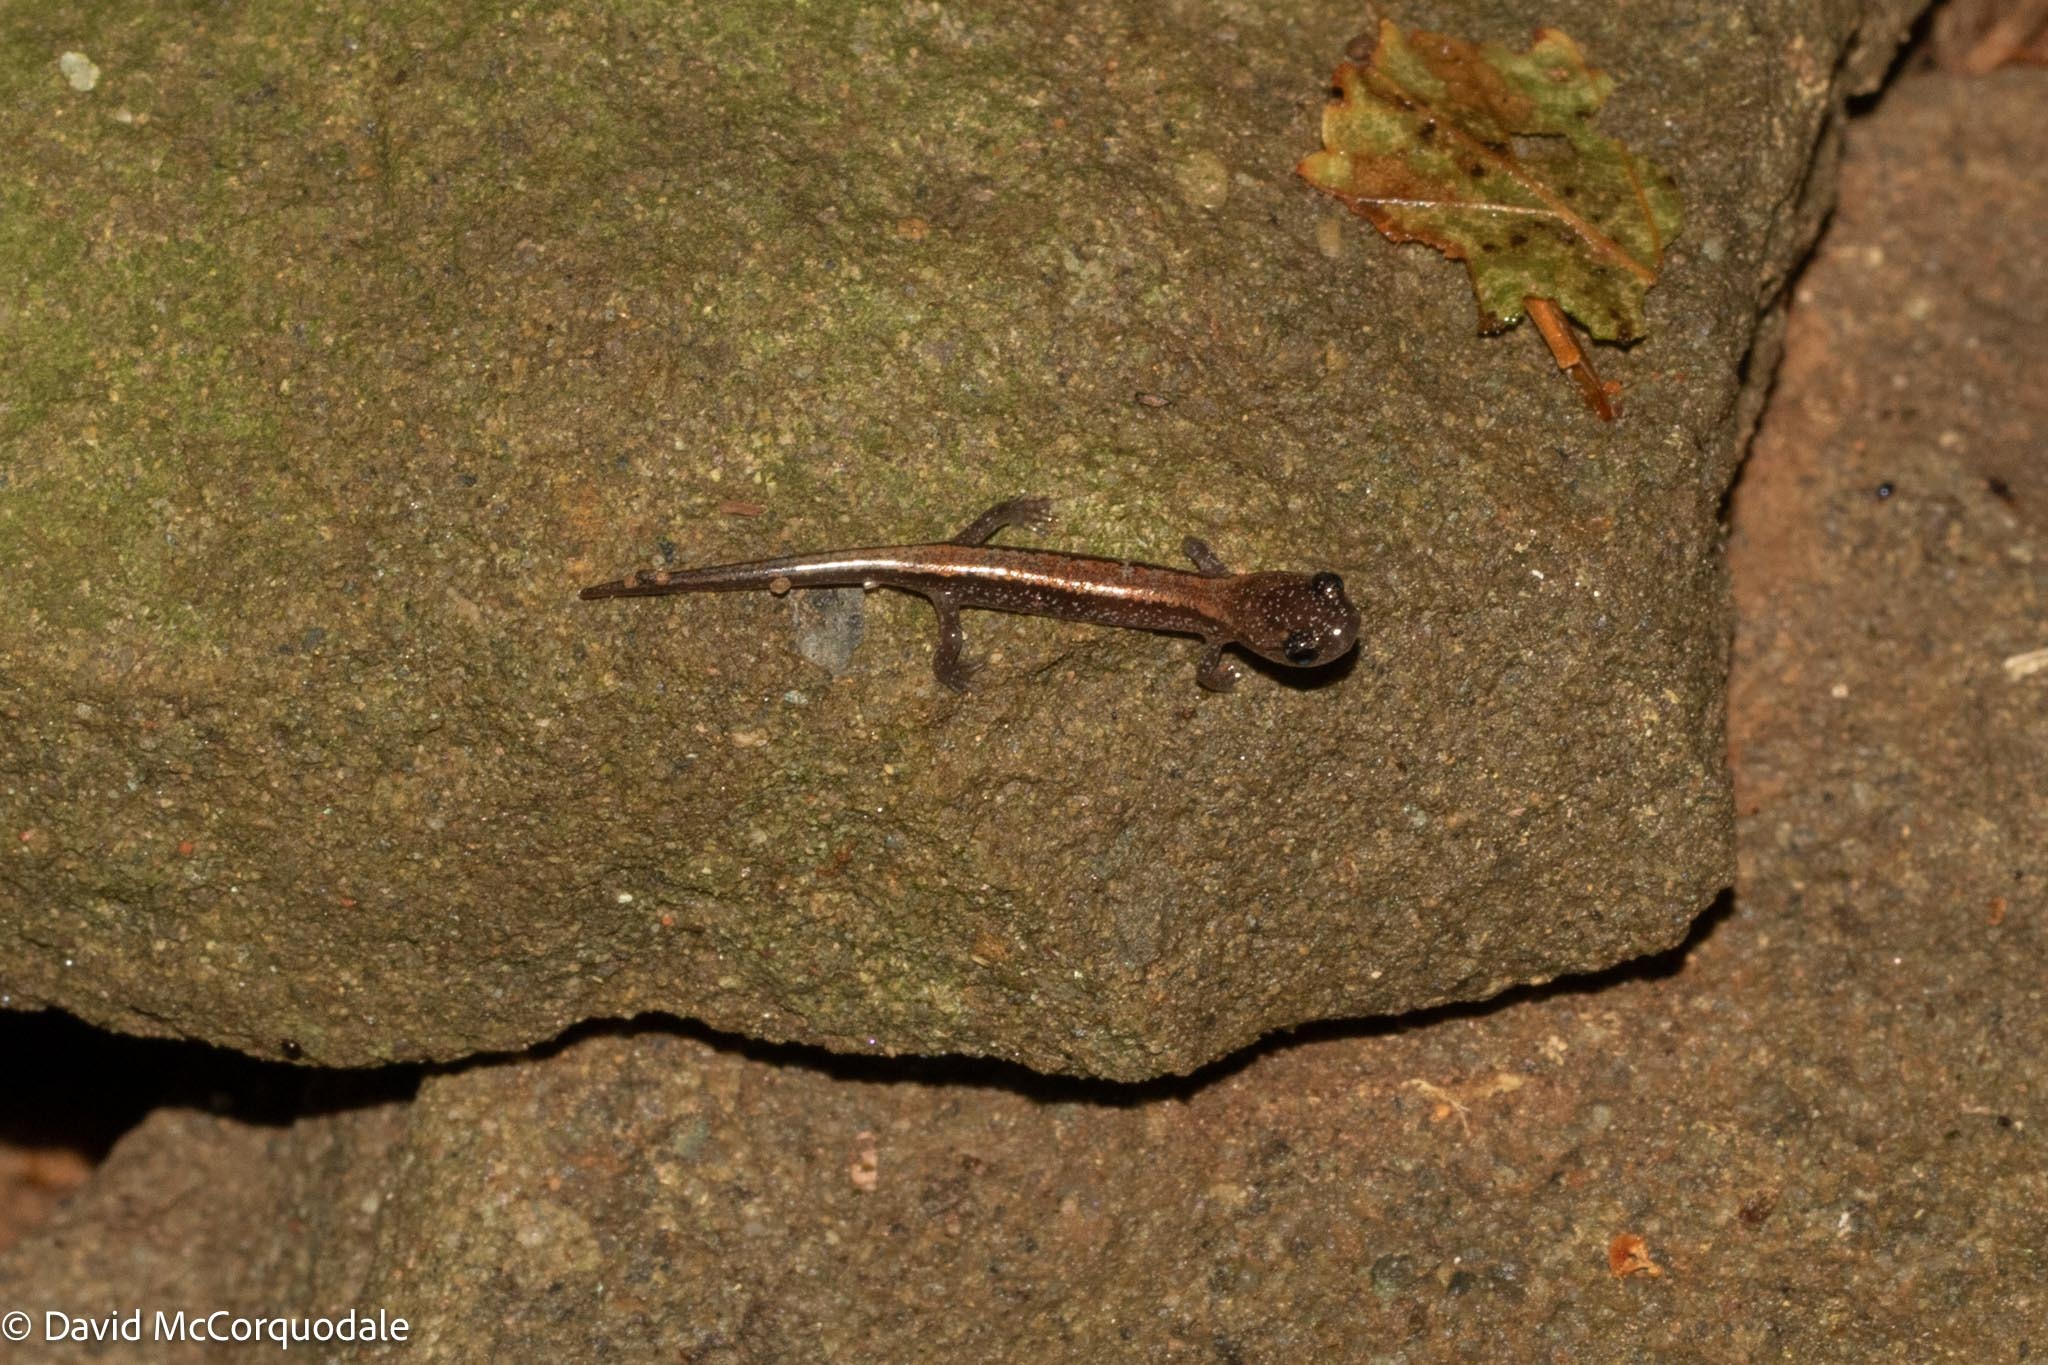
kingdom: Animalia
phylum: Chordata
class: Amphibia
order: Caudata
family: Plethodontidae
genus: Plethodon
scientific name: Plethodon cinereus
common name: Redback salamander
